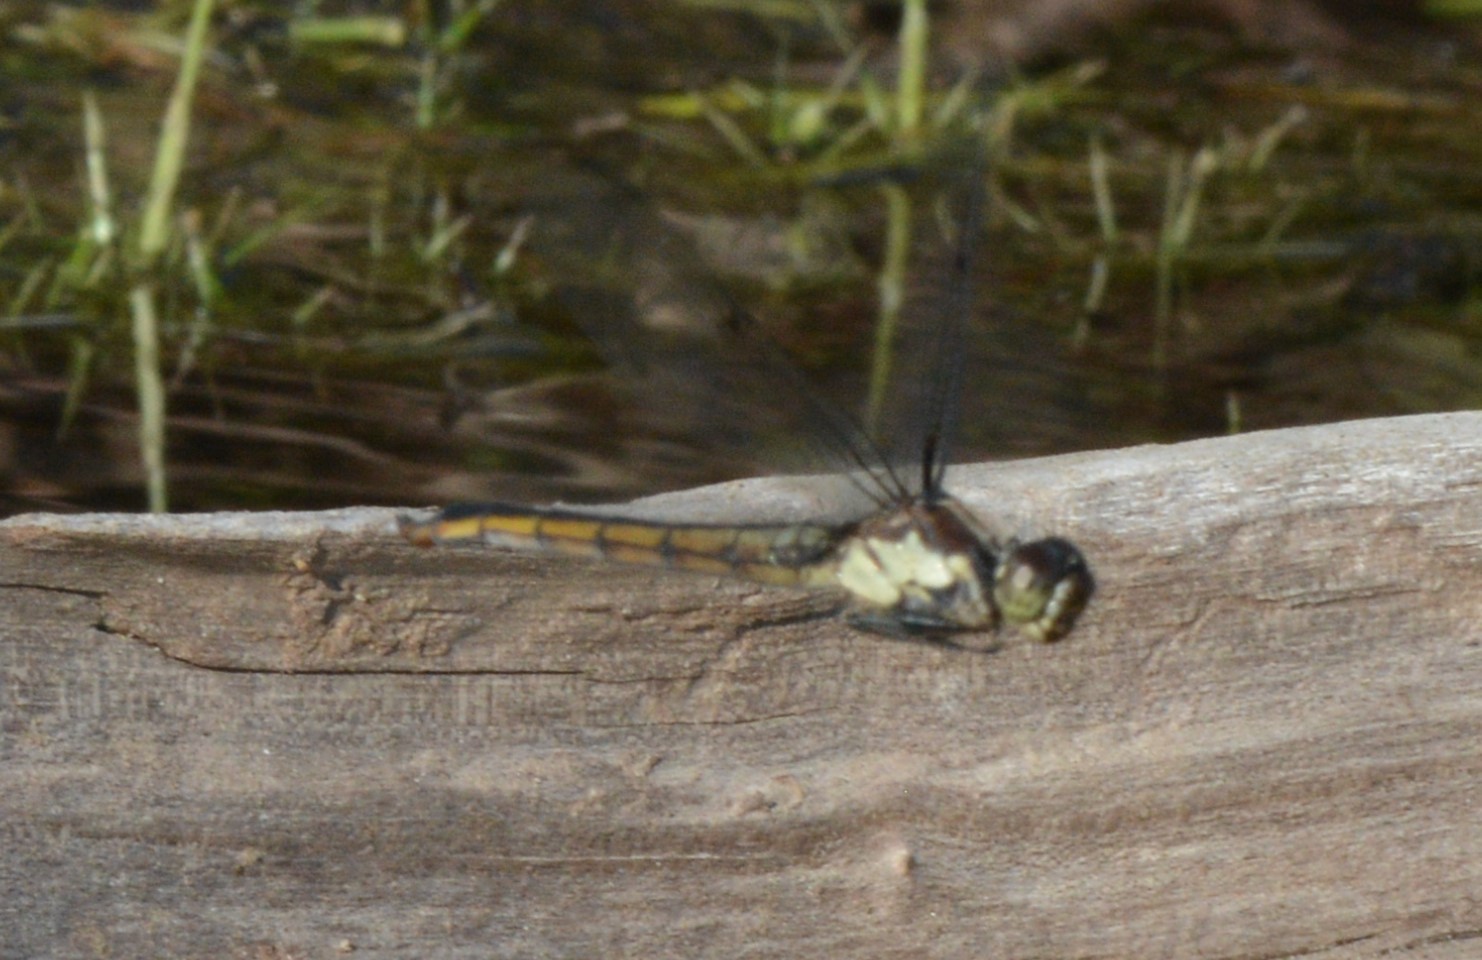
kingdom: Animalia
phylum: Arthropoda
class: Insecta
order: Odonata
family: Libellulidae
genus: Libellula
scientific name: Libellula incesta
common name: Slaty skimmer
